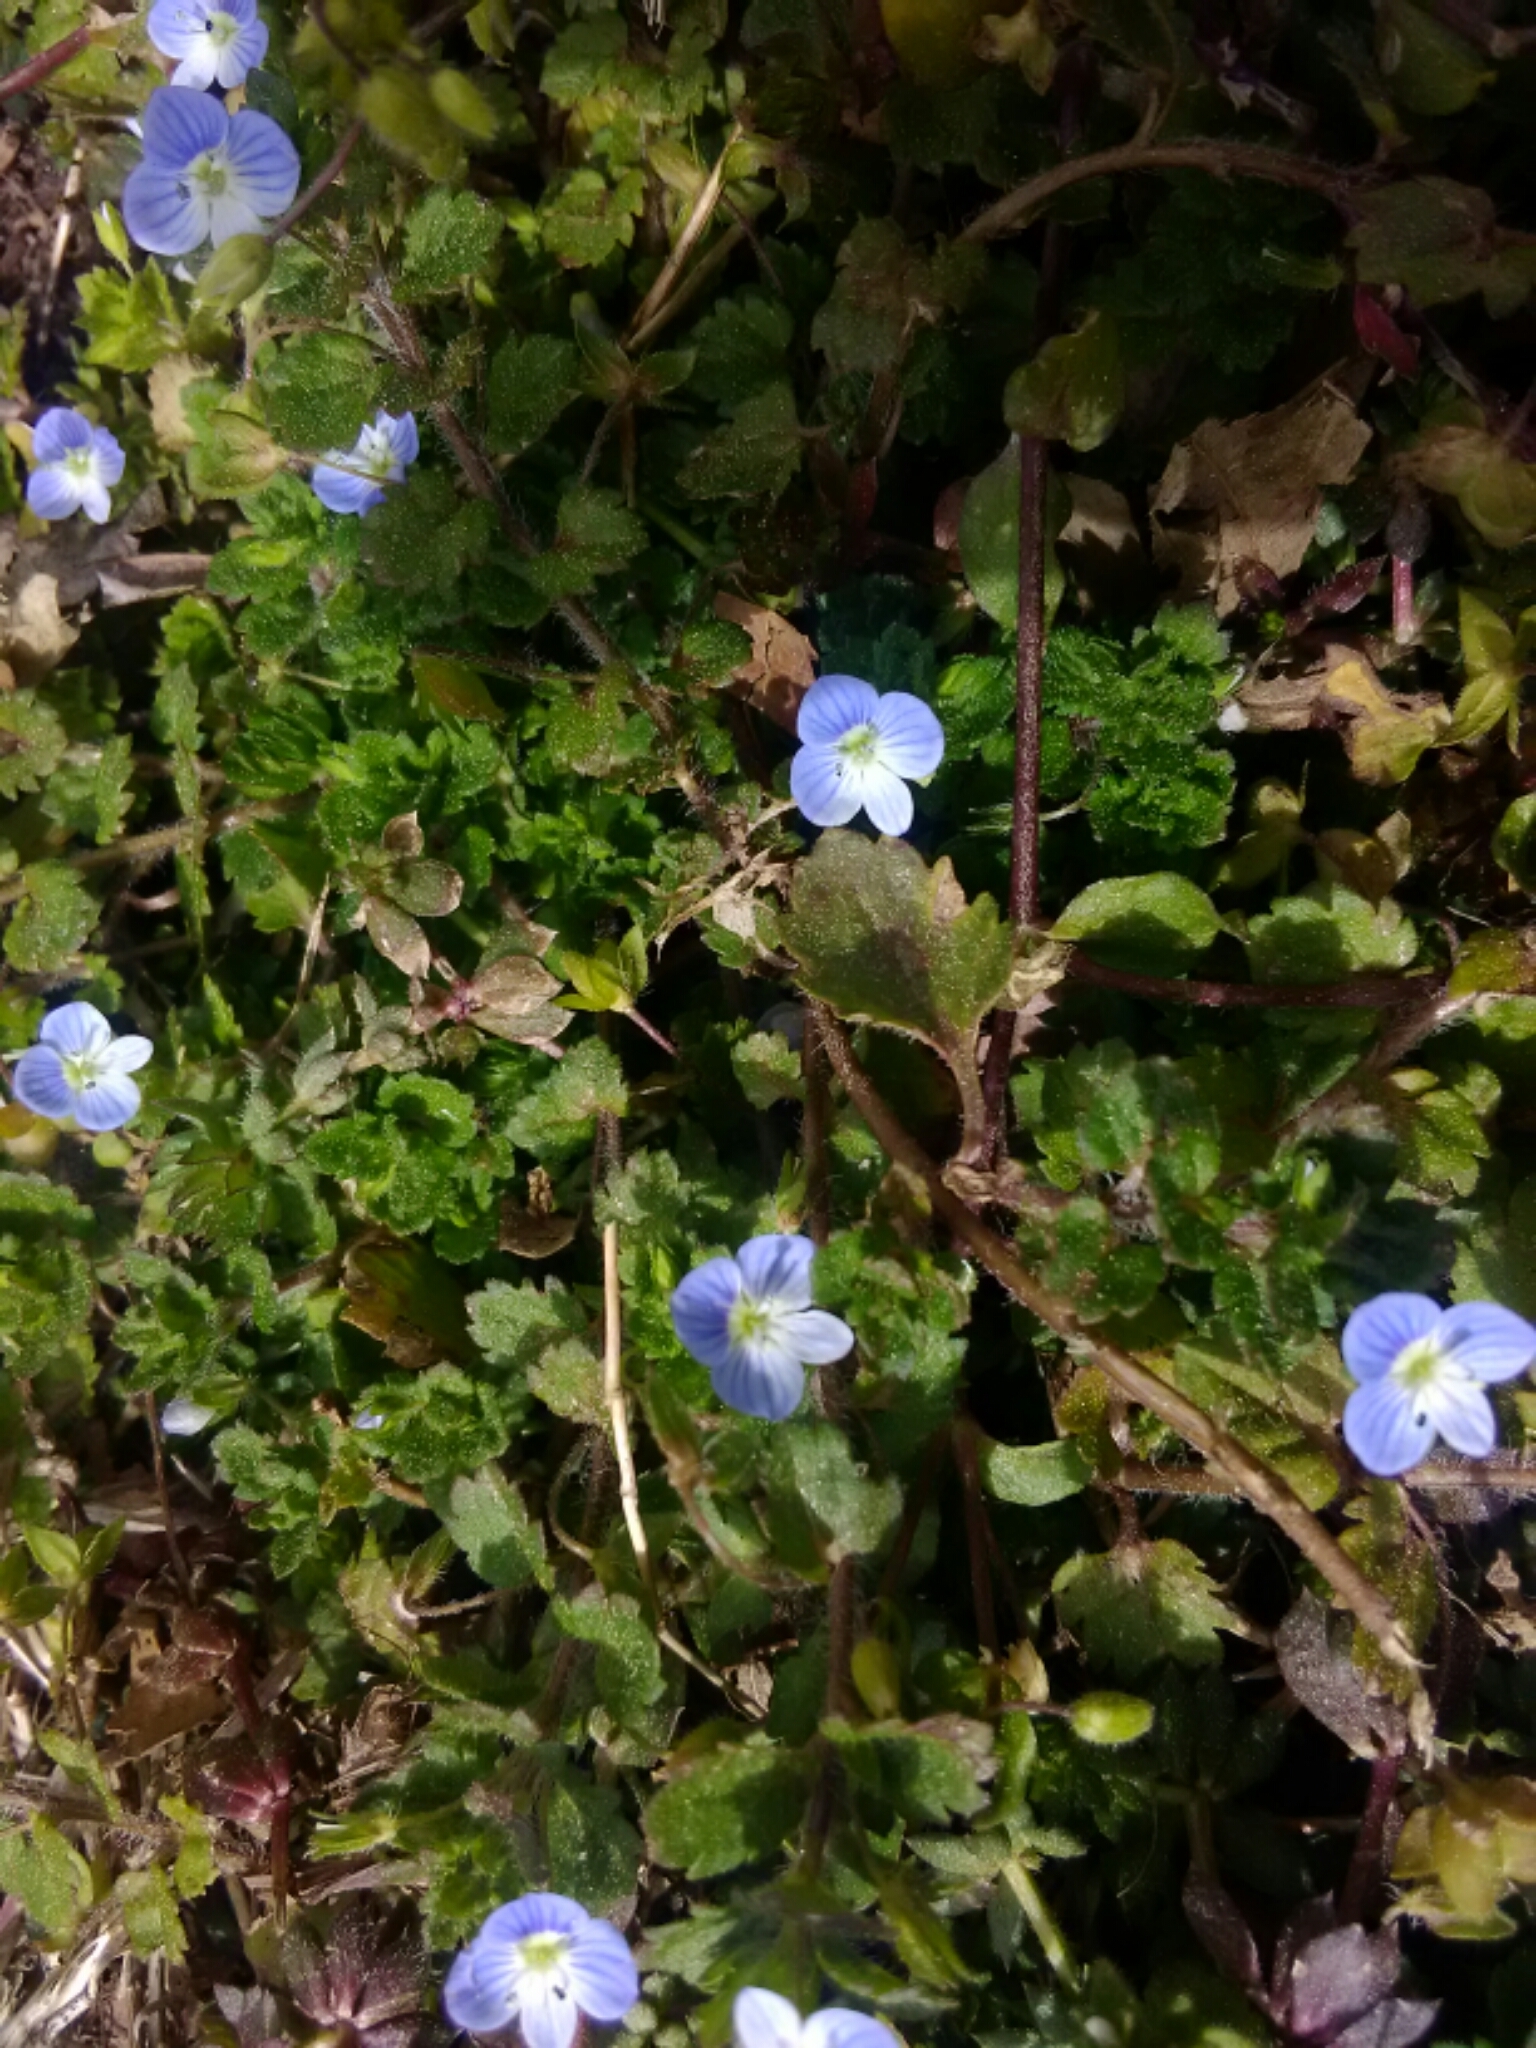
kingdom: Plantae
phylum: Tracheophyta
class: Magnoliopsida
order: Lamiales
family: Plantaginaceae
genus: Veronica
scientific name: Veronica persica
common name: Common field-speedwell
